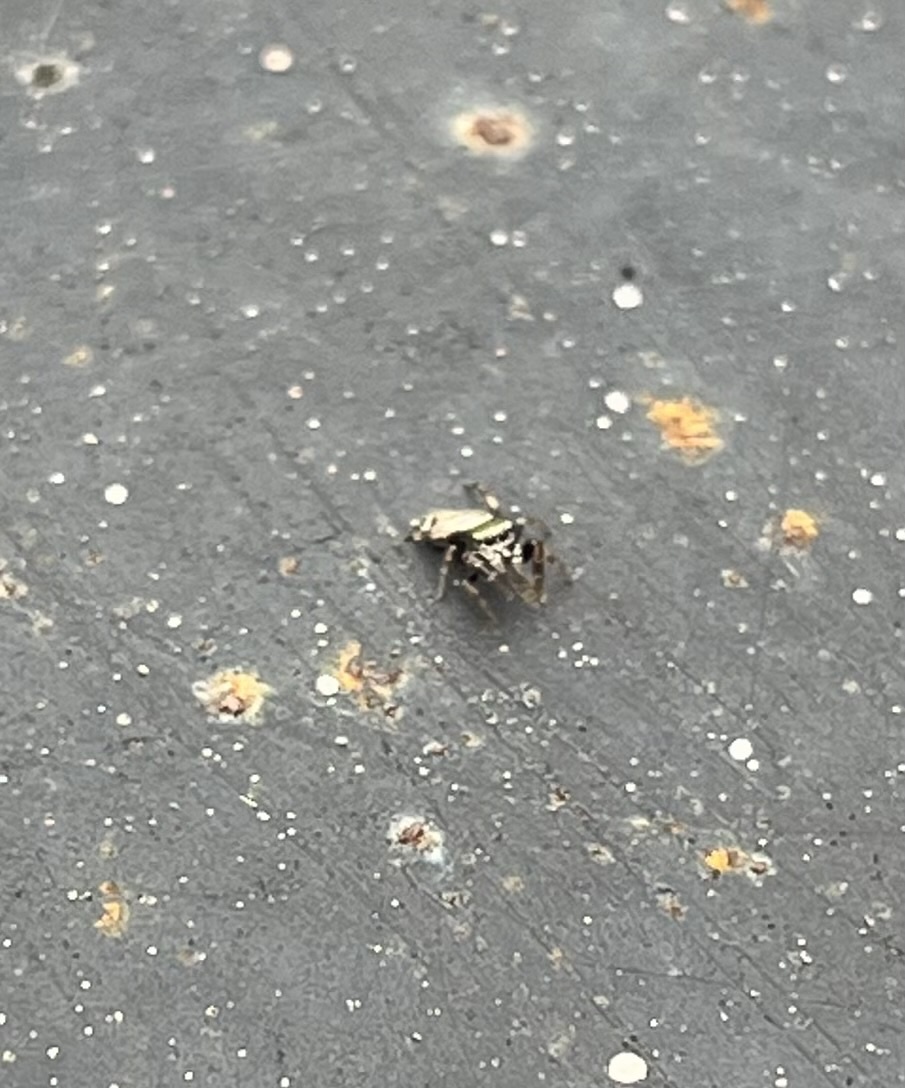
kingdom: Animalia
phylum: Arthropoda
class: Arachnida
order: Araneae
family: Salticidae
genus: Sassacus
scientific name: Sassacus vitis
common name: Jumping spiders
